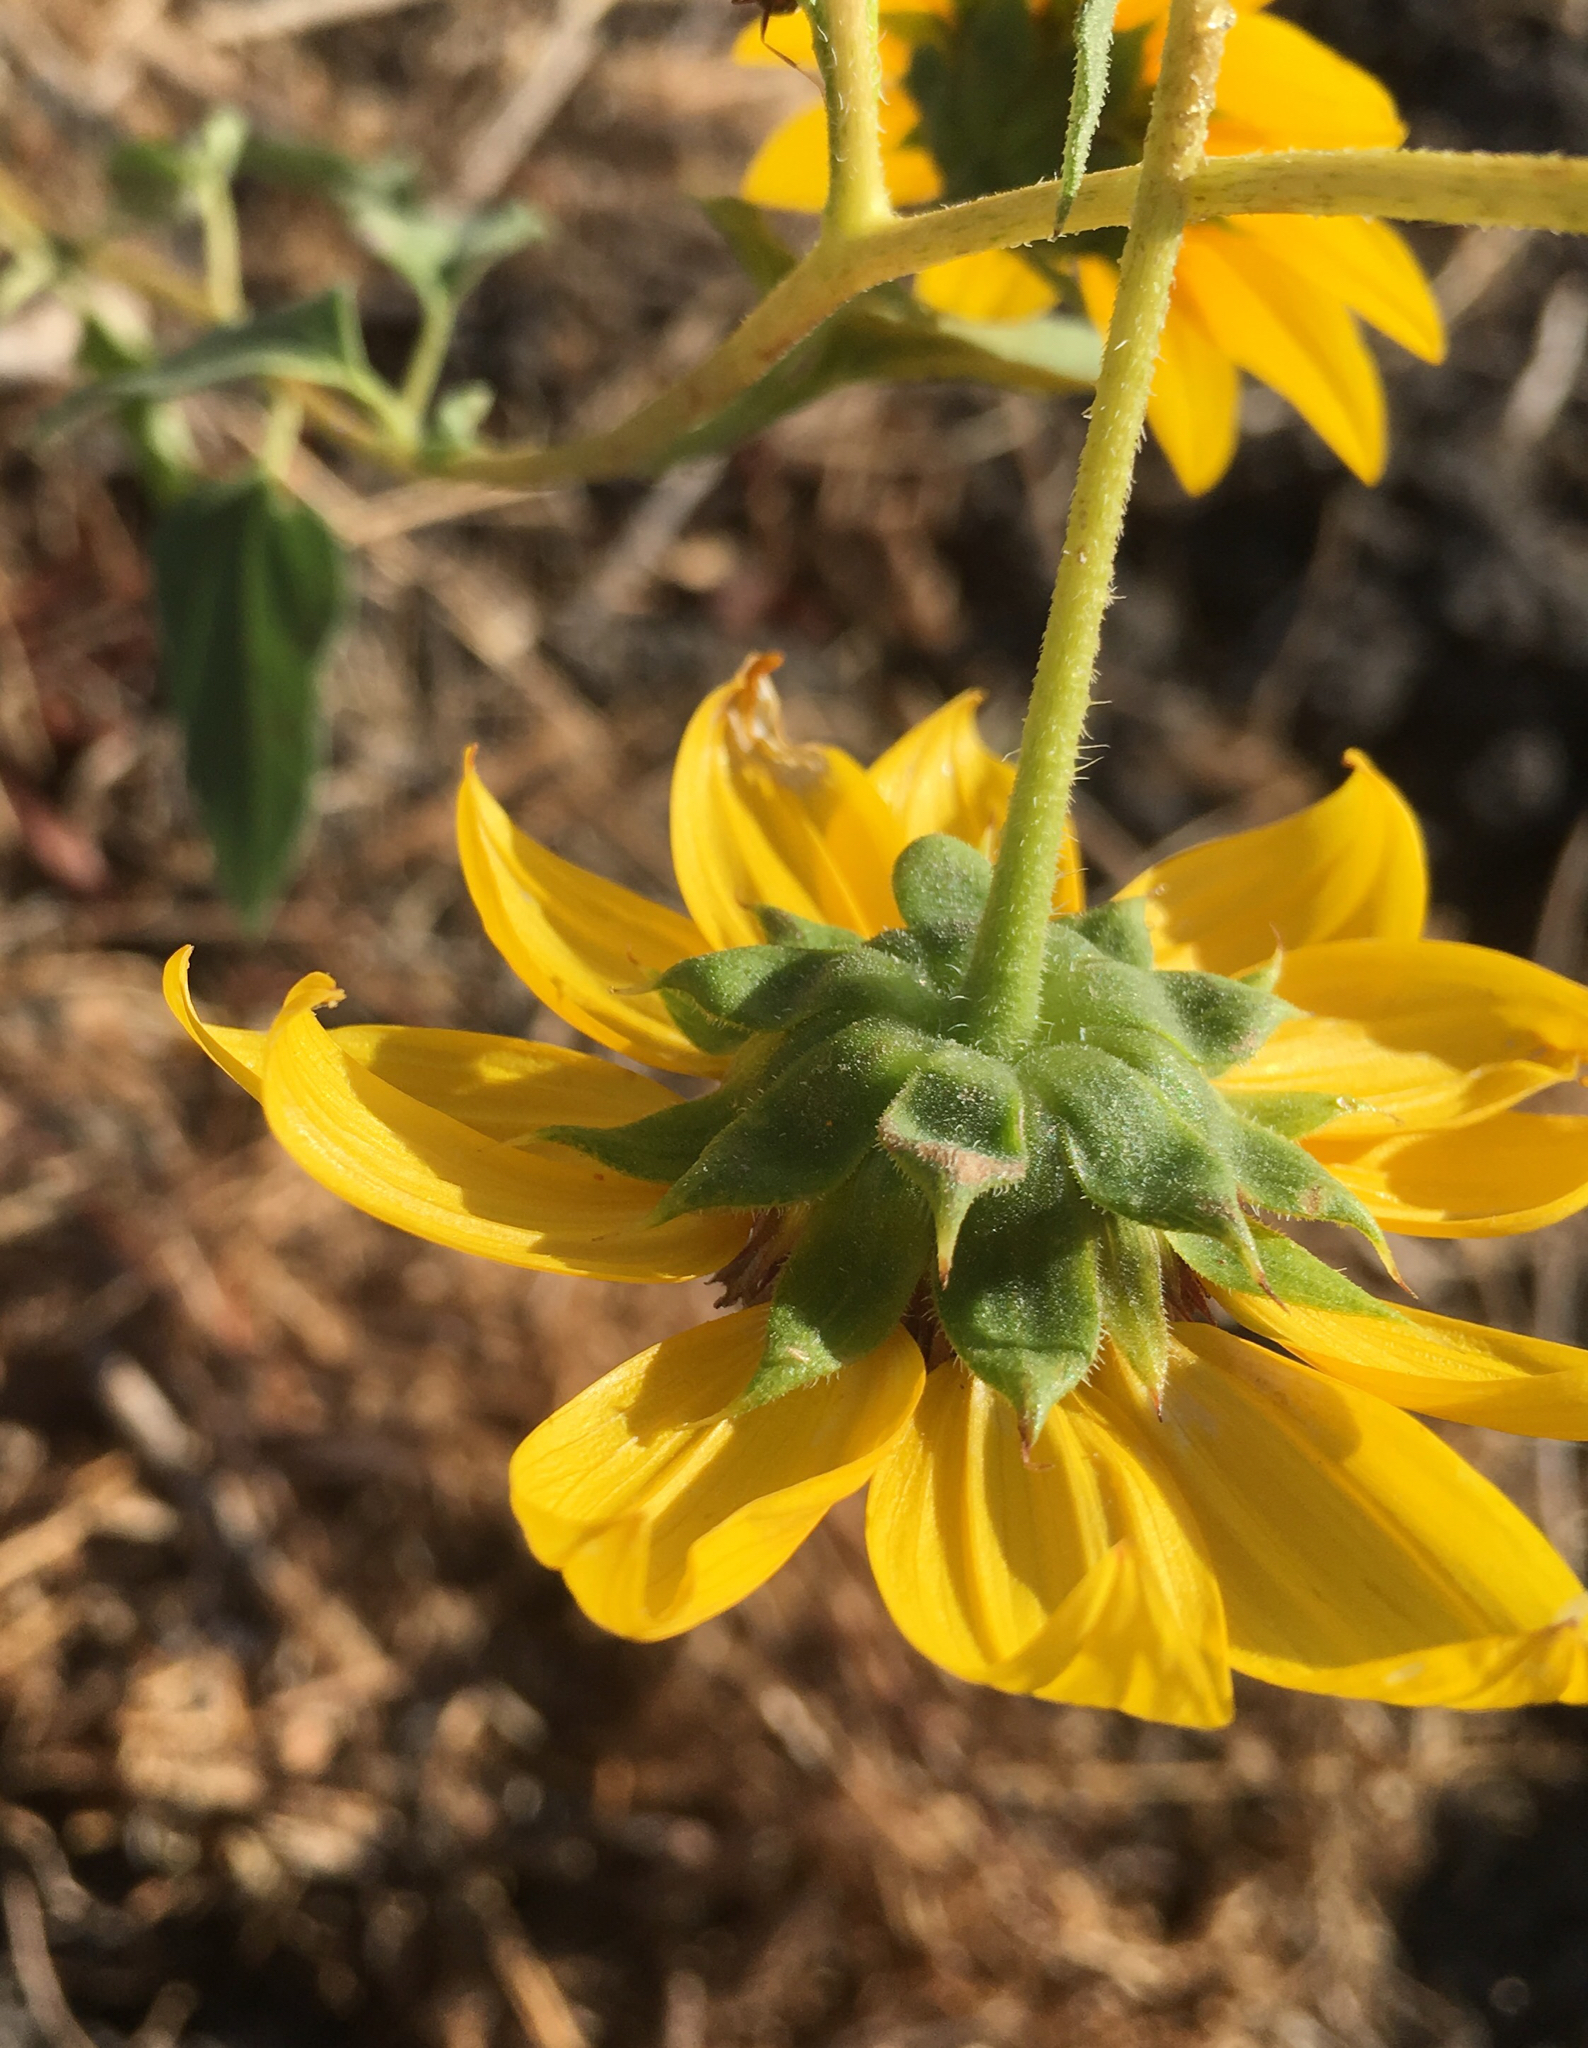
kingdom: Plantae
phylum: Tracheophyta
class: Magnoliopsida
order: Asterales
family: Asteraceae
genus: Helianthus
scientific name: Helianthus annuus
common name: Sunflower
